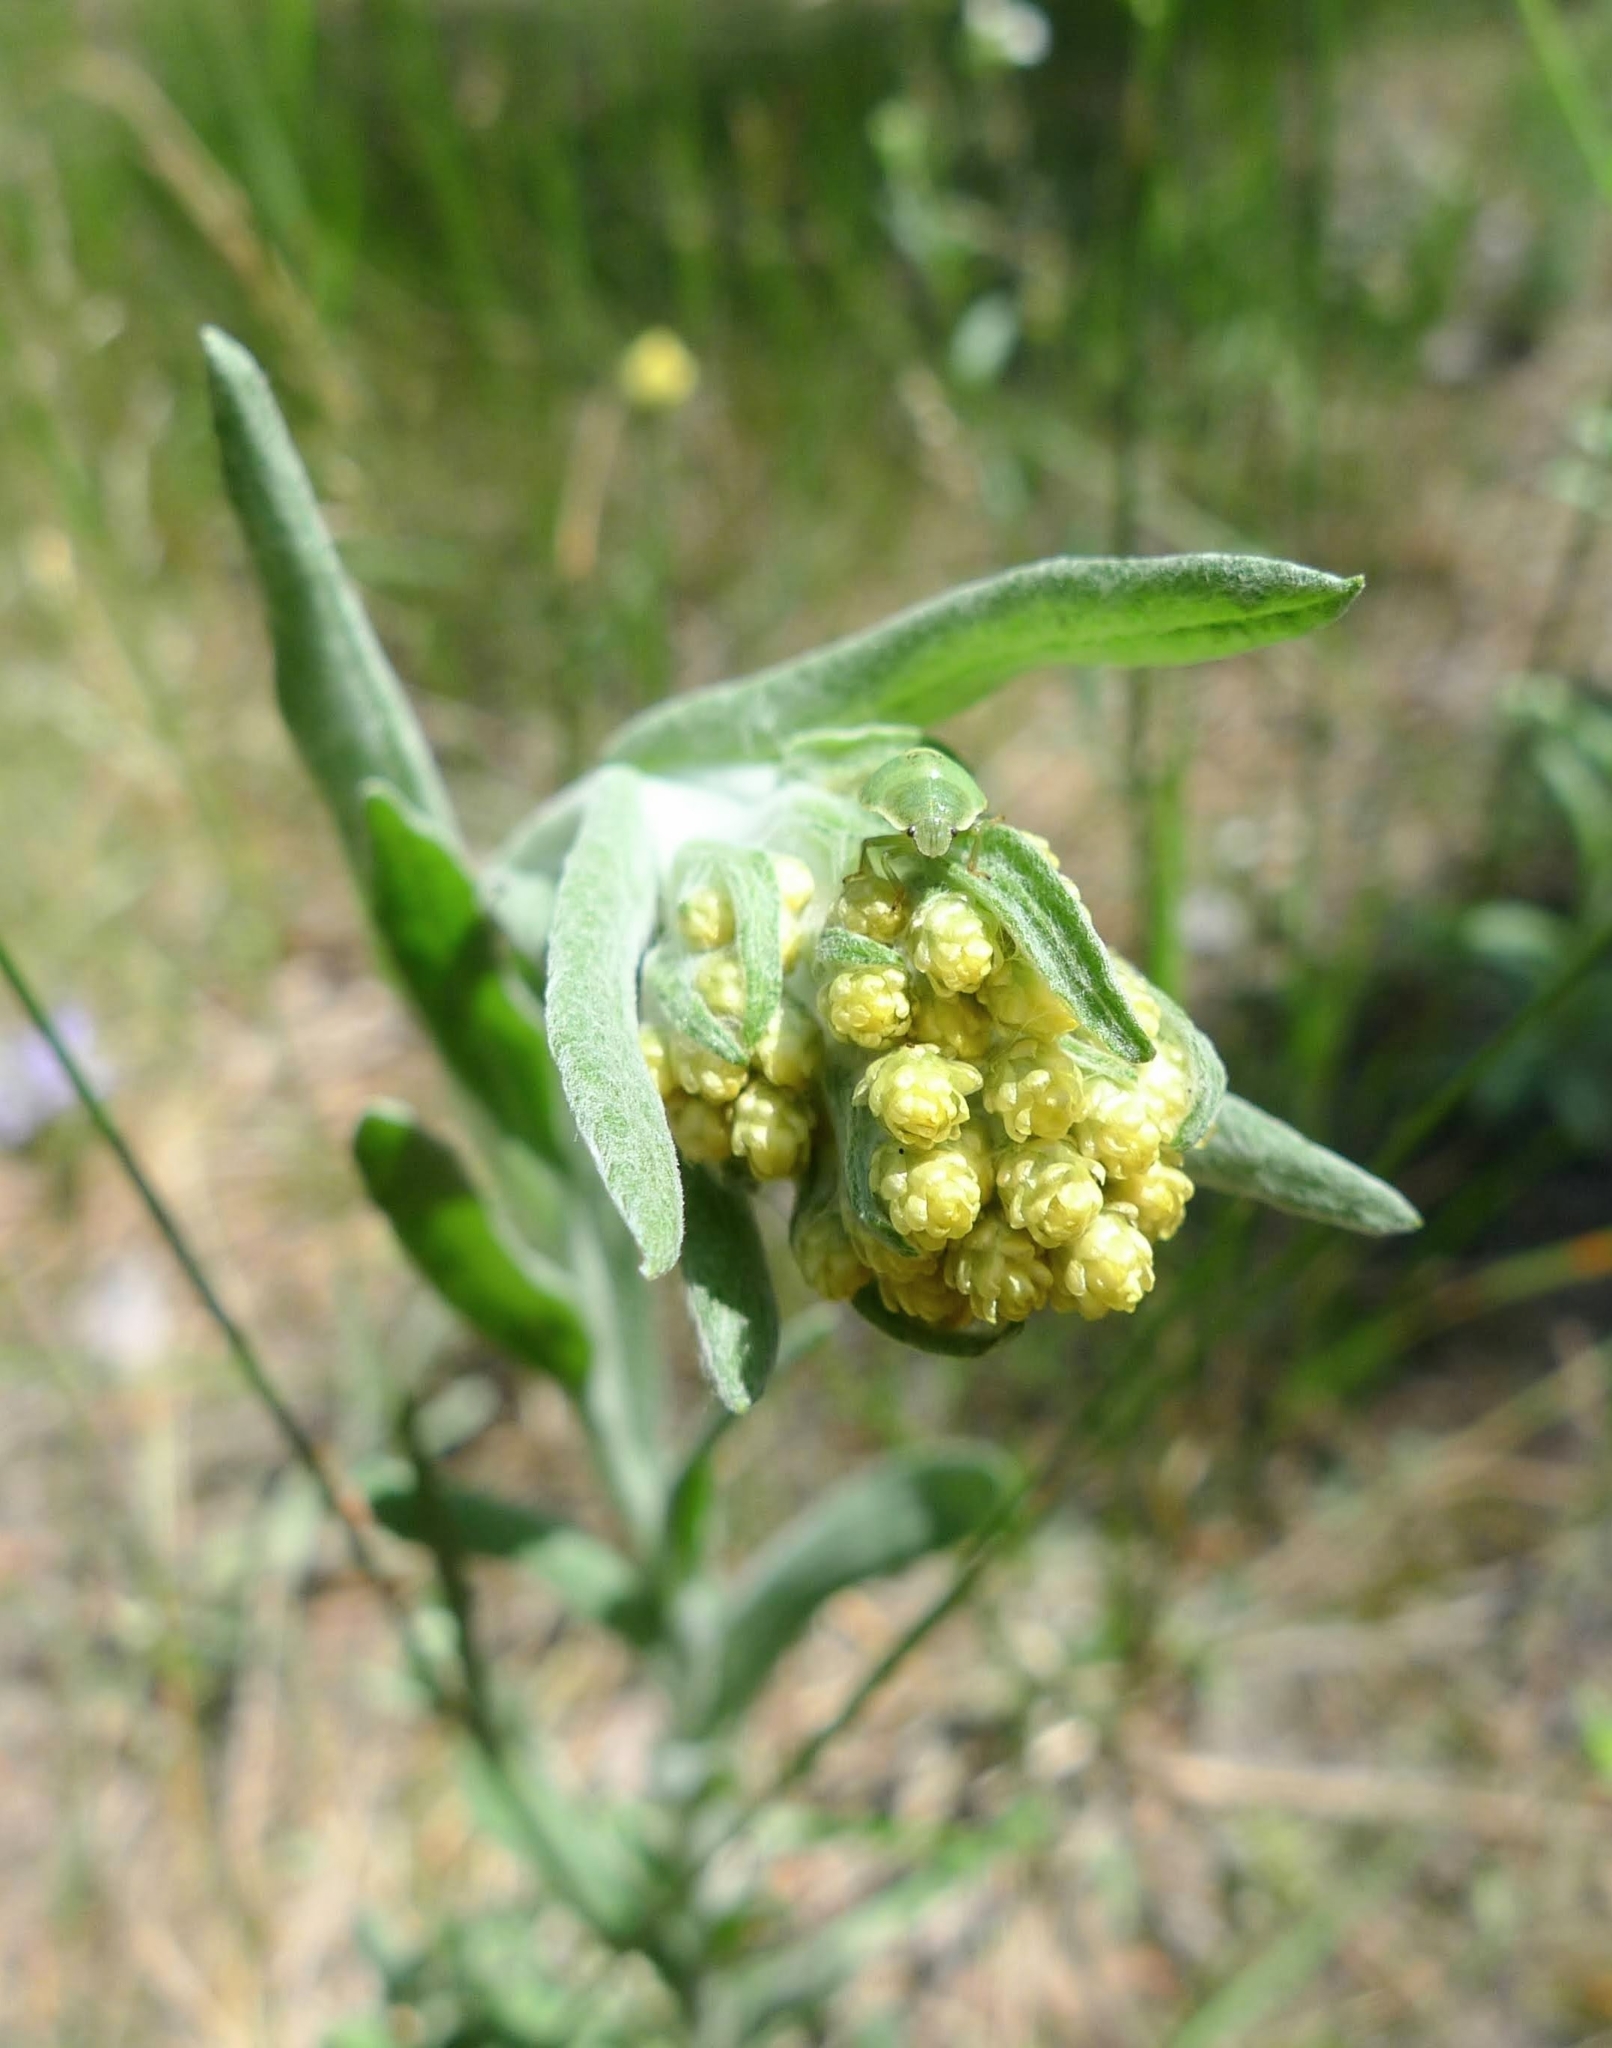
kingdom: Plantae
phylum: Tracheophyta
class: Magnoliopsida
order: Asterales
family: Asteraceae
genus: Helichrysum
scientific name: Helichrysum arenarium
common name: Strawflower
